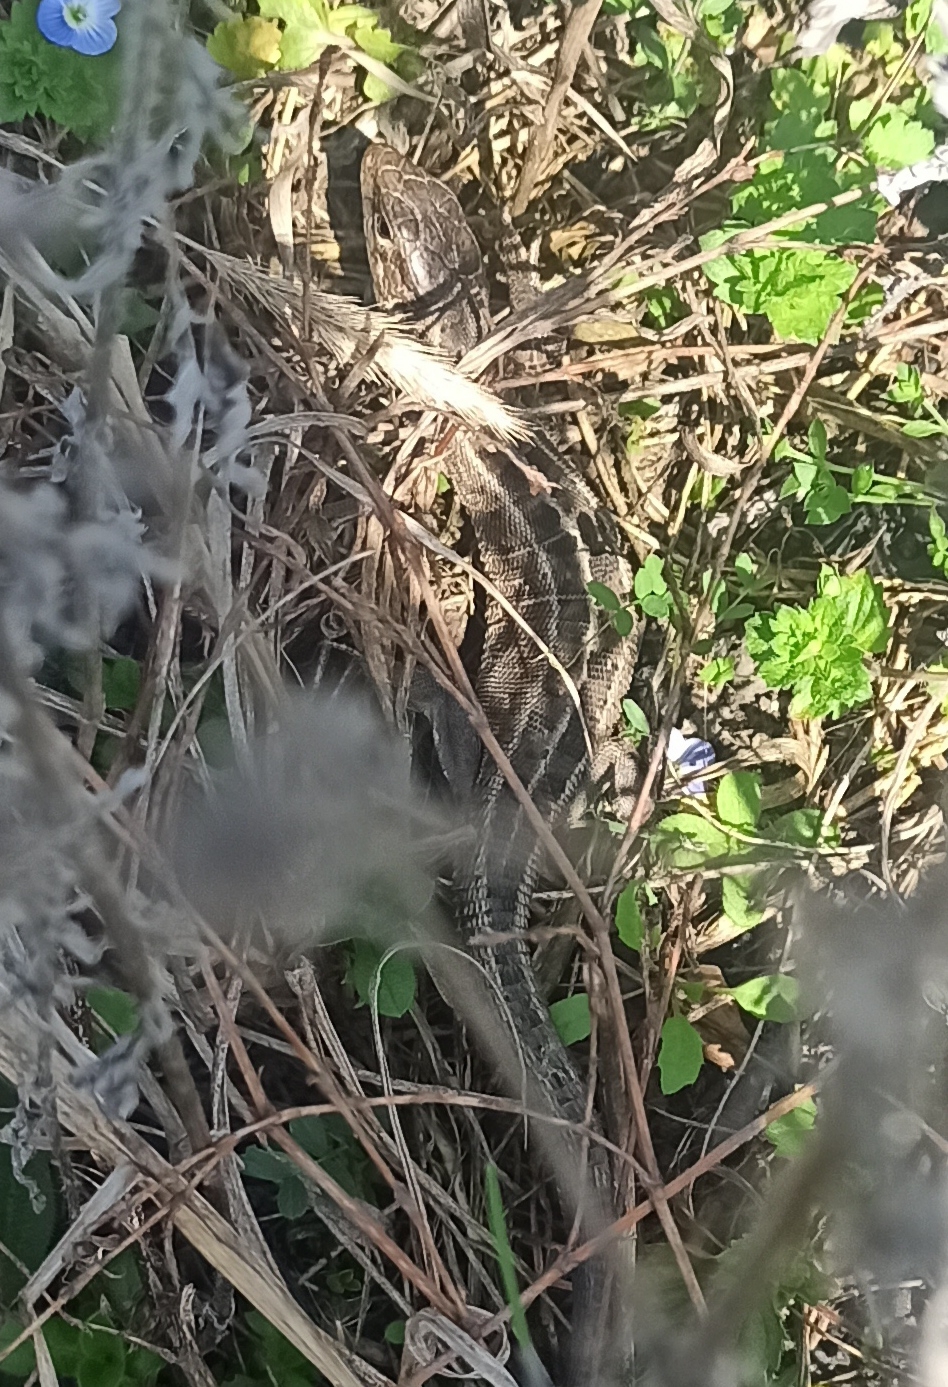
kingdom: Animalia
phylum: Chordata
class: Squamata
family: Lacertidae
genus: Lacerta
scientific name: Lacerta agilis
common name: Sand lizard
